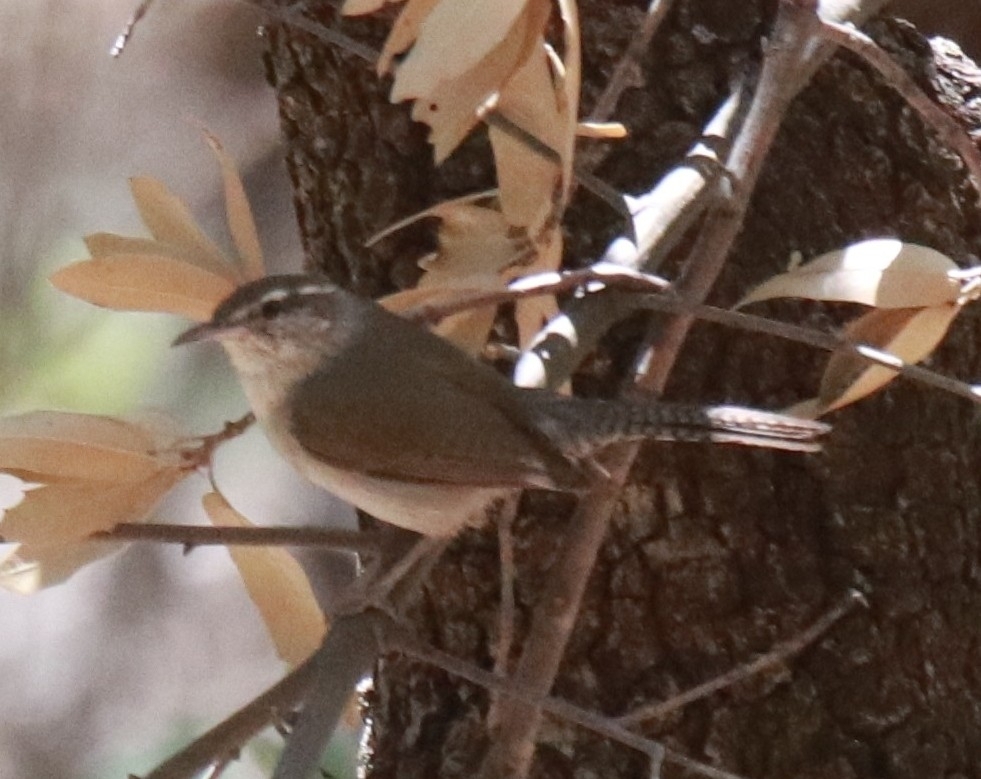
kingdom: Animalia
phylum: Chordata
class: Aves
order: Passeriformes
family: Troglodytidae
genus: Thryomanes
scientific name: Thryomanes bewickii
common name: Bewick's wren
